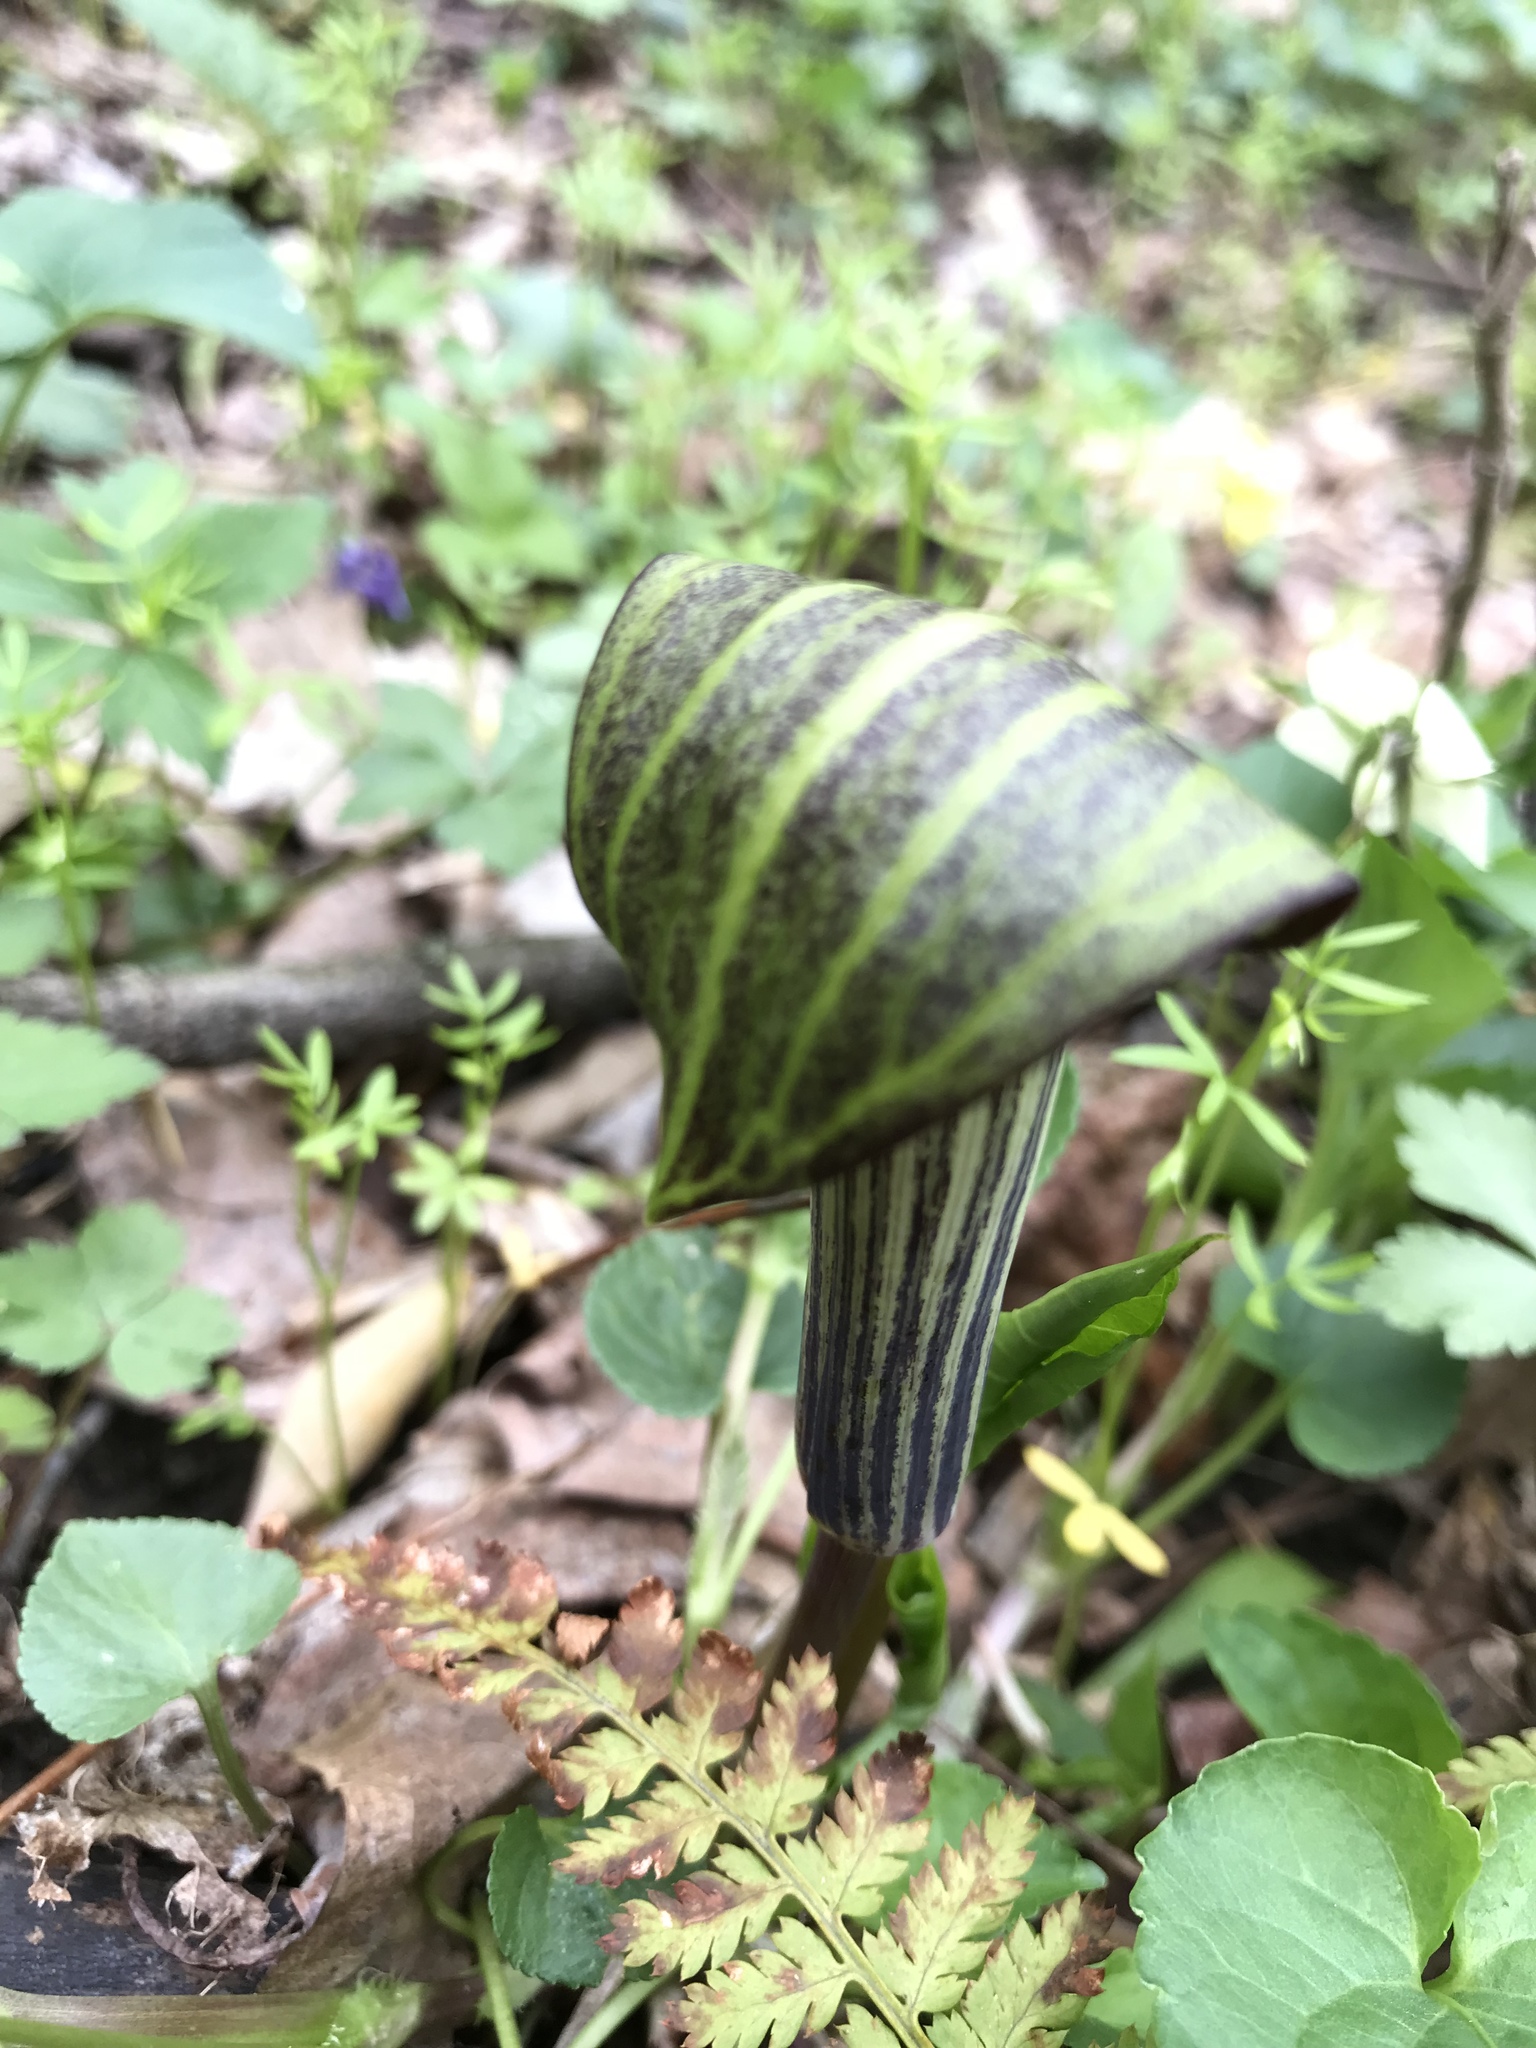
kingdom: Plantae
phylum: Tracheophyta
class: Liliopsida
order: Alismatales
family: Araceae
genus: Arisaema
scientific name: Arisaema triphyllum
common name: Jack-in-the-pulpit
